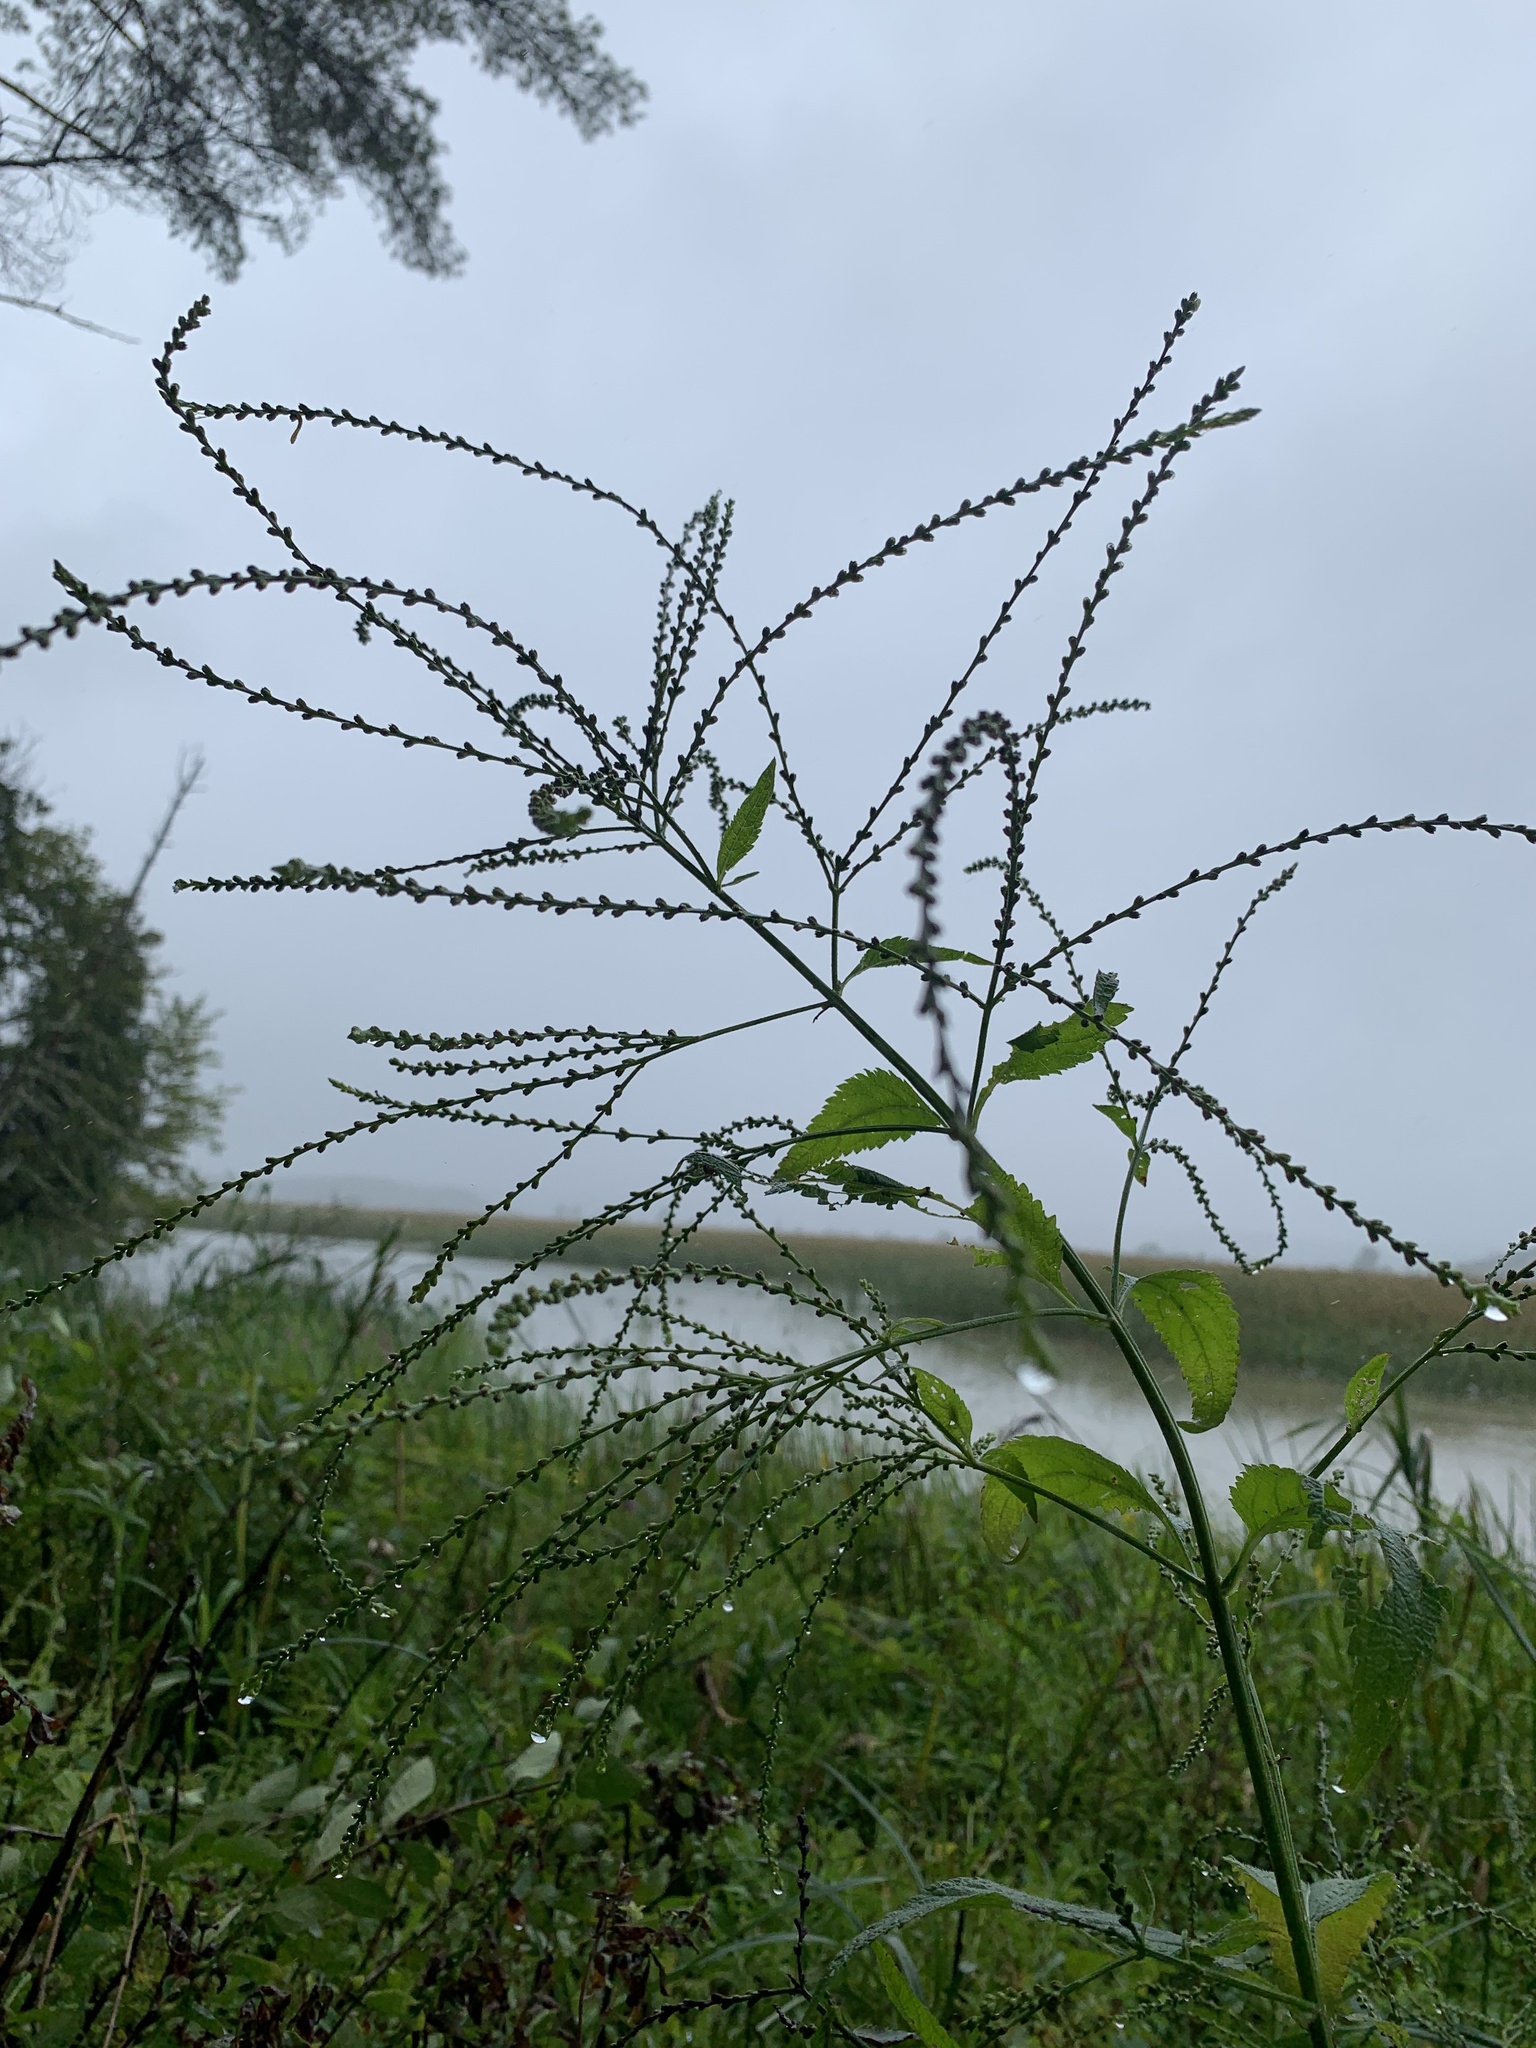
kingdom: Plantae
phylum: Tracheophyta
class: Magnoliopsida
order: Lamiales
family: Verbenaceae
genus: Verbena
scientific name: Verbena urticifolia
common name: Nettle-leaved vervain
